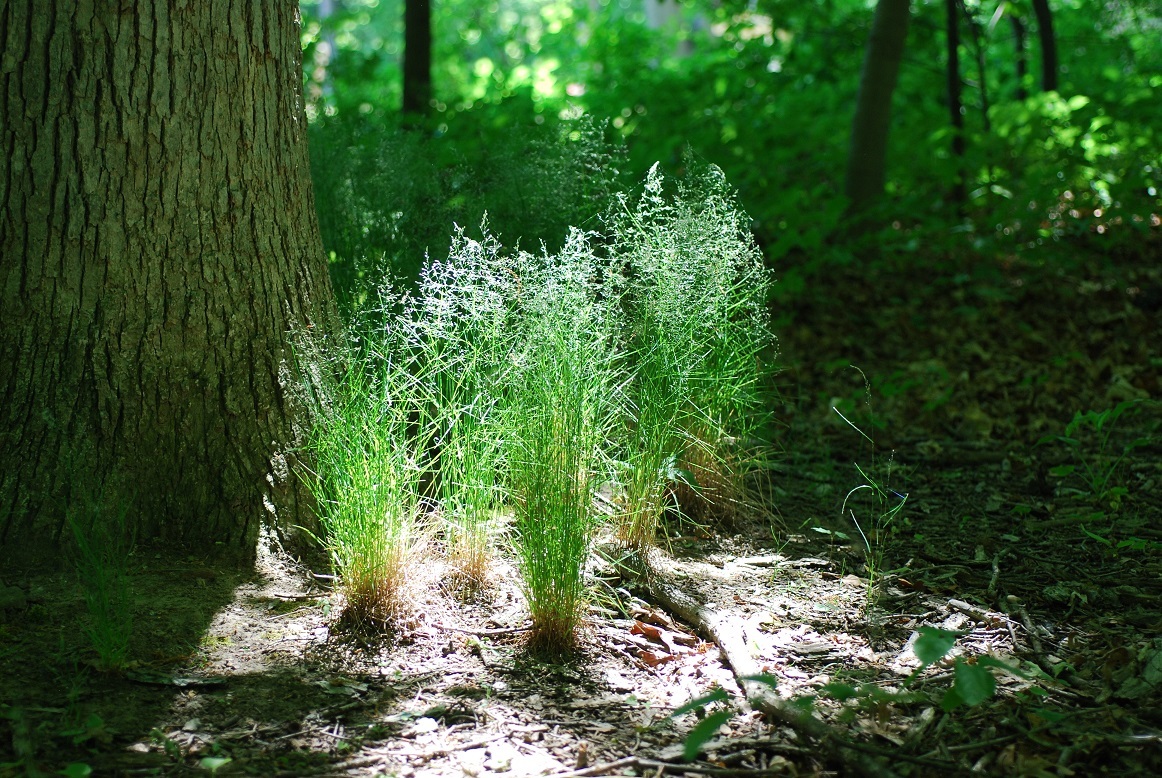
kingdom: Plantae
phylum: Tracheophyta
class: Liliopsida
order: Poales
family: Poaceae
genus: Poa
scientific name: Poa nemoralis
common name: Wood bluegrass
